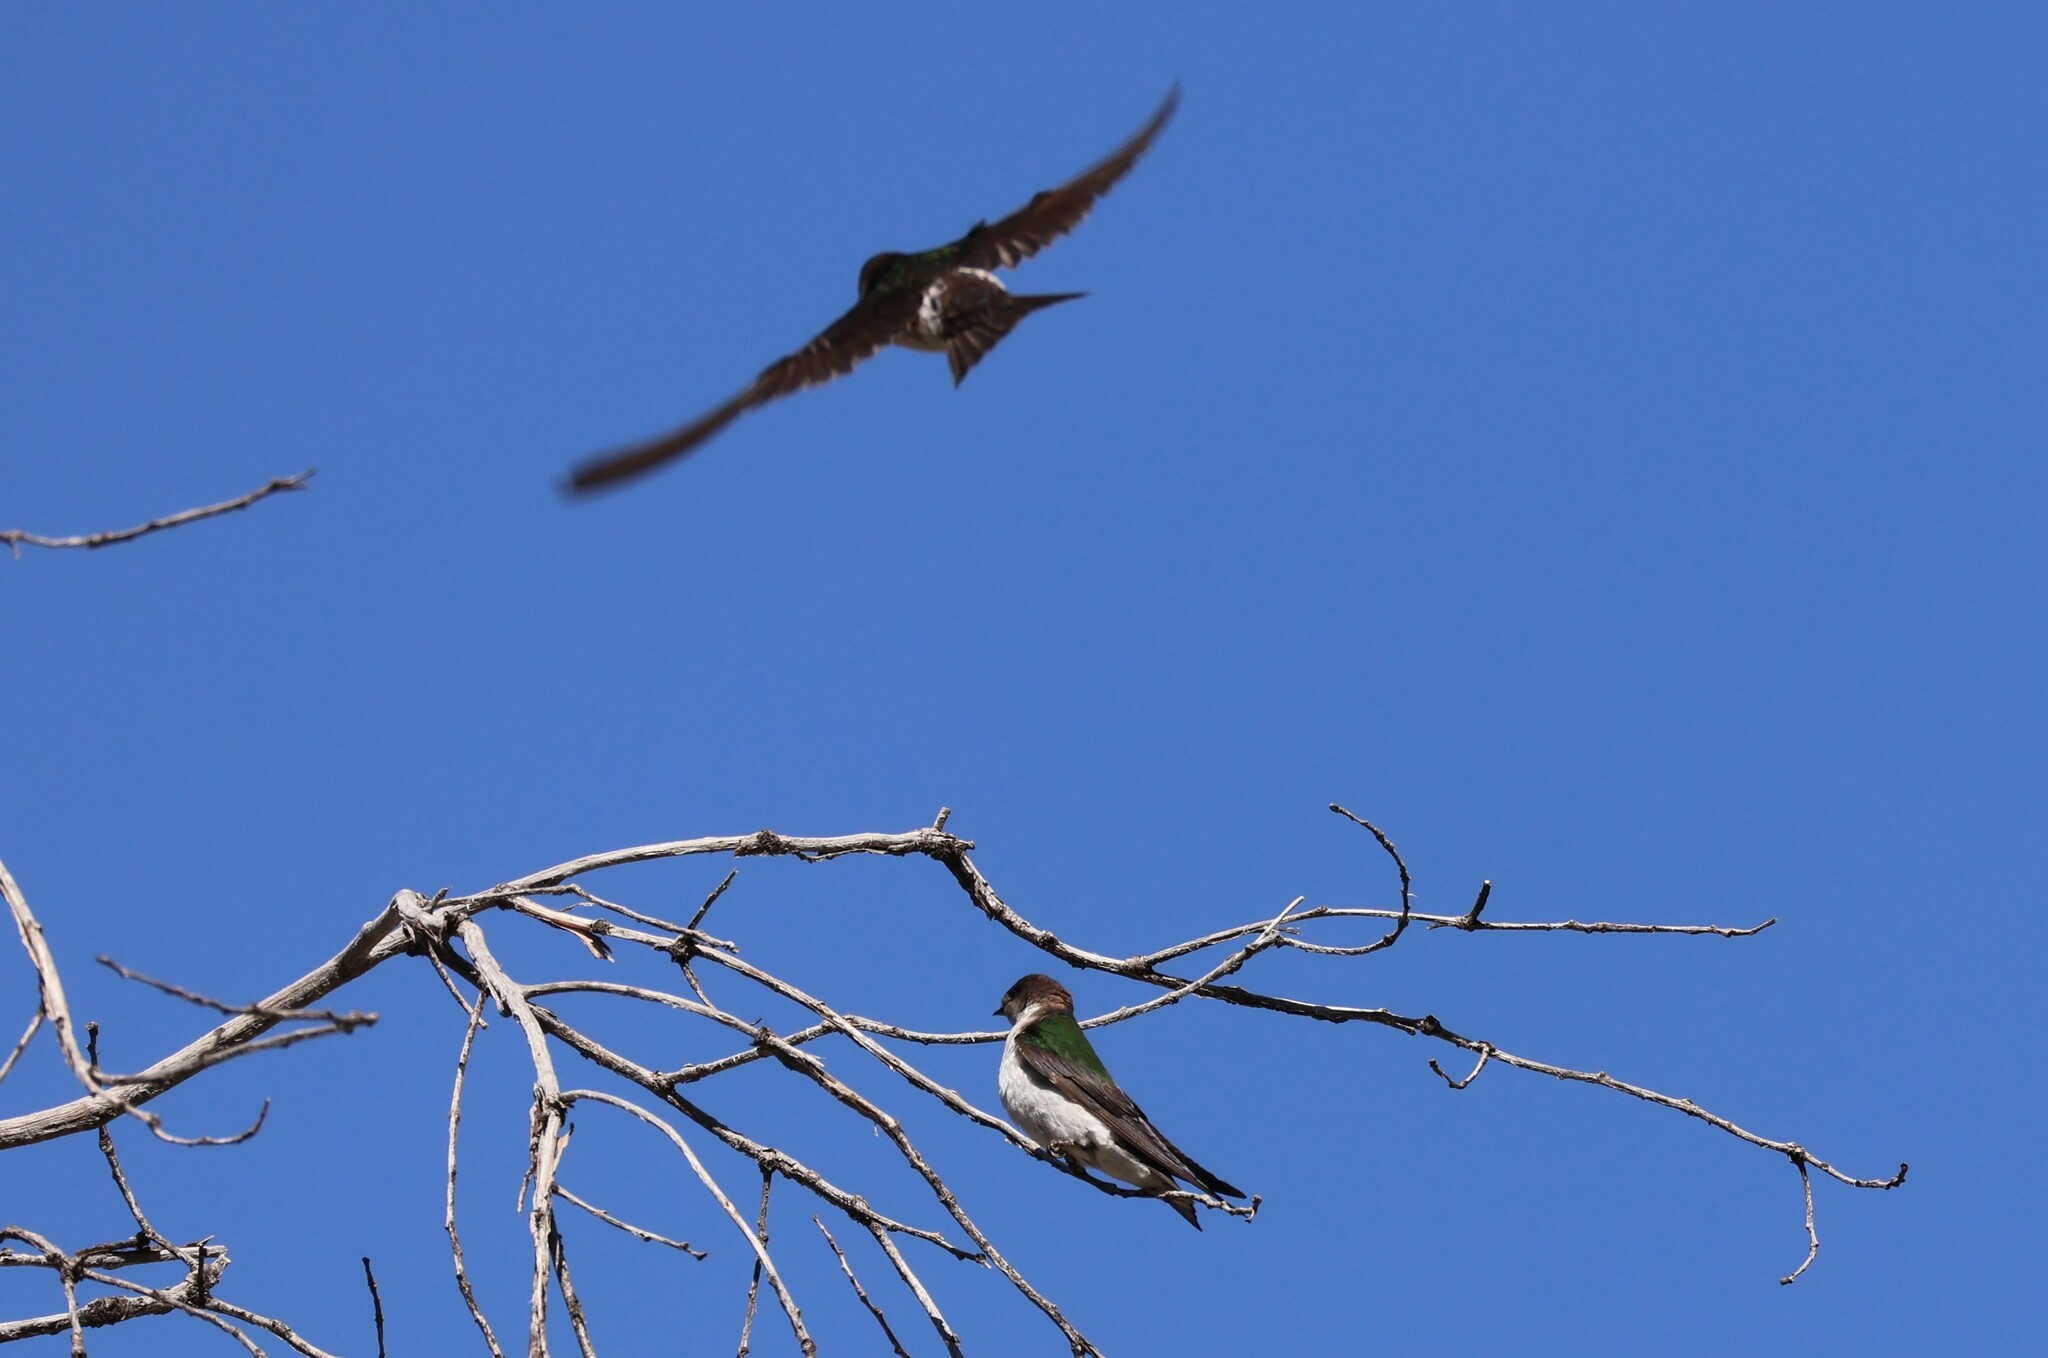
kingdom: Animalia
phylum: Chordata
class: Aves
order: Passeriformes
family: Hirundinidae
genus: Tachycineta
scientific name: Tachycineta thalassina
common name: Violet-green swallow
